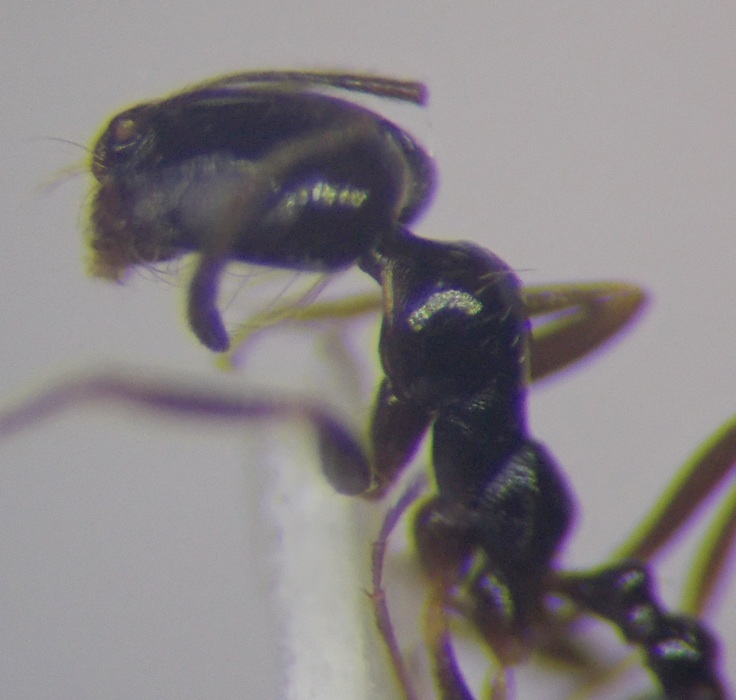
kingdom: Animalia
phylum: Arthropoda
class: Insecta
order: Hymenoptera
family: Formicidae
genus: Monomorium
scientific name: Monomorium barbatulum
